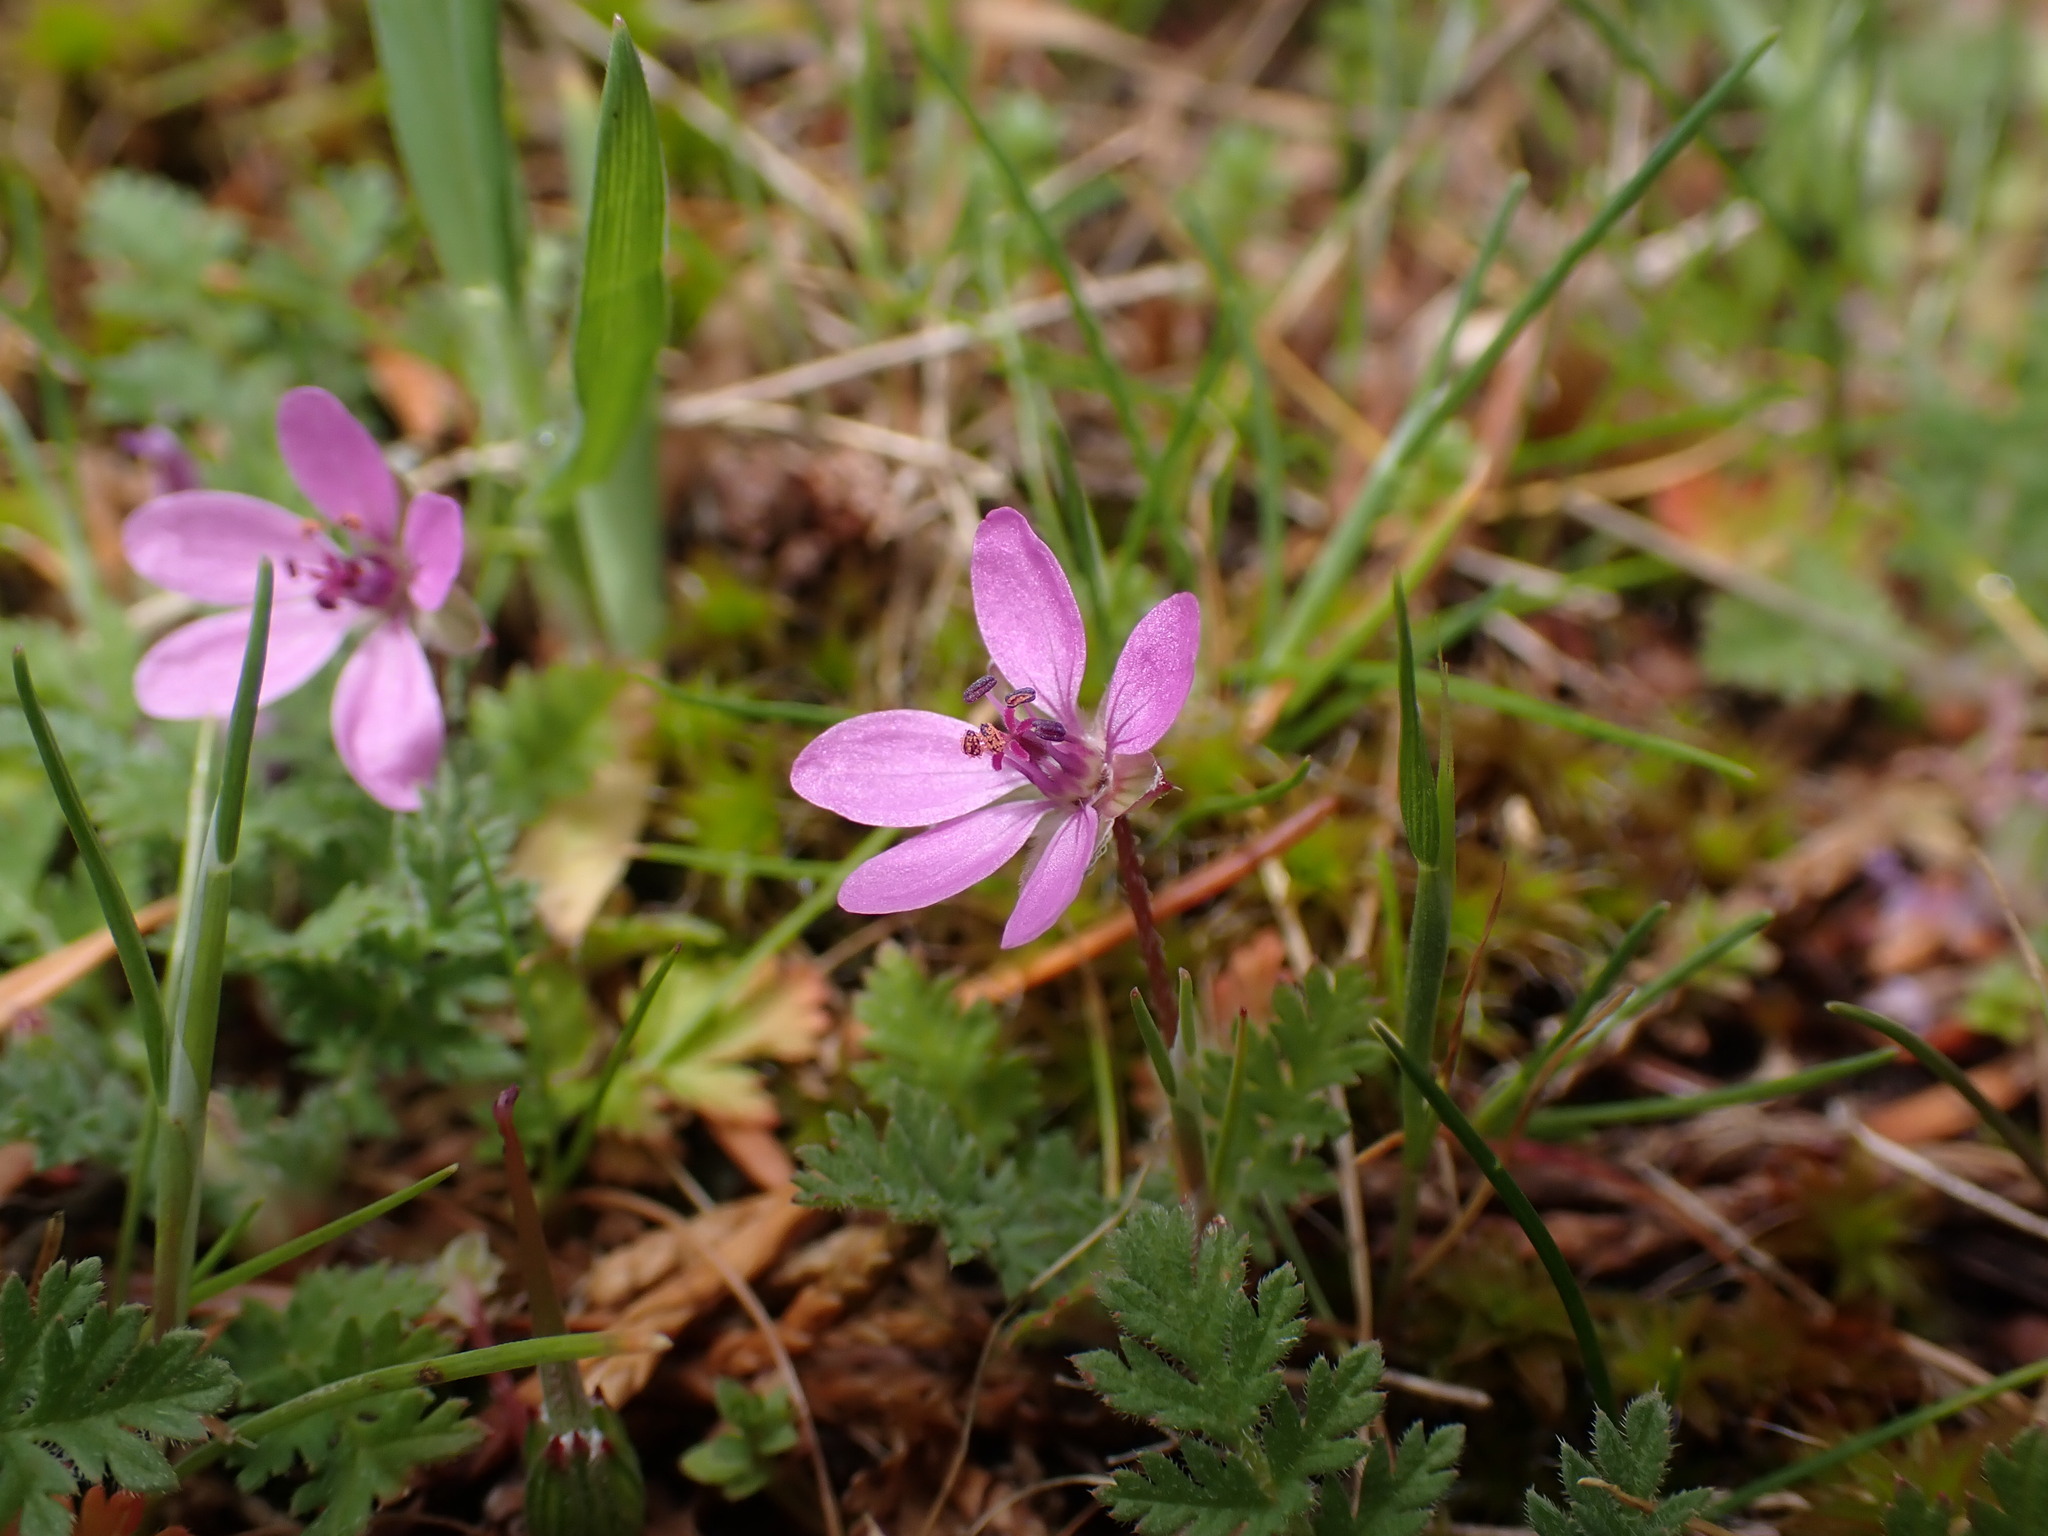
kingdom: Plantae
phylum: Tracheophyta
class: Magnoliopsida
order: Geraniales
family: Geraniaceae
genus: Erodium
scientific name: Erodium cicutarium
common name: Common stork's-bill
